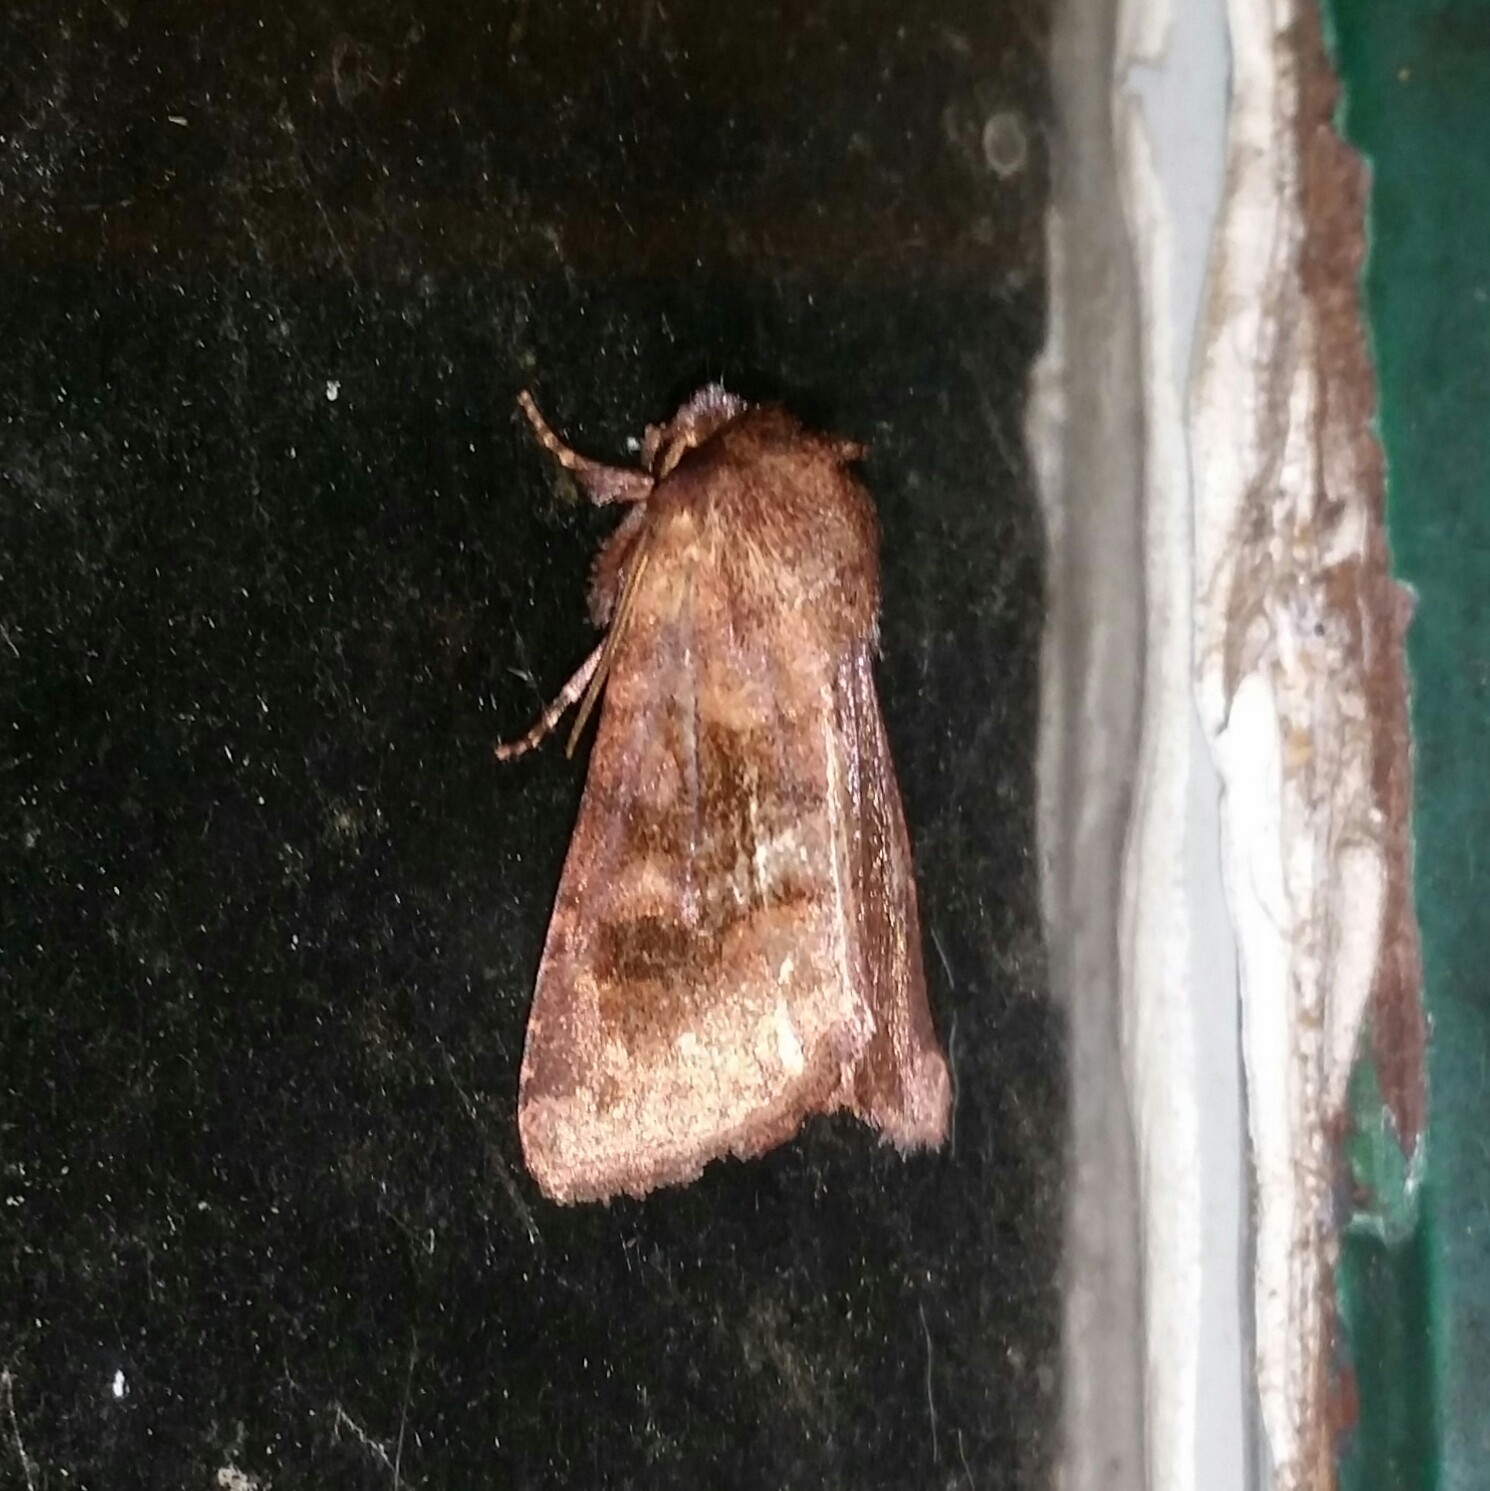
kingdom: Animalia
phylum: Arthropoda
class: Insecta
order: Lepidoptera
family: Noctuidae
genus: Nephelodes
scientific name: Nephelodes minians
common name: Bronzed cutworm
